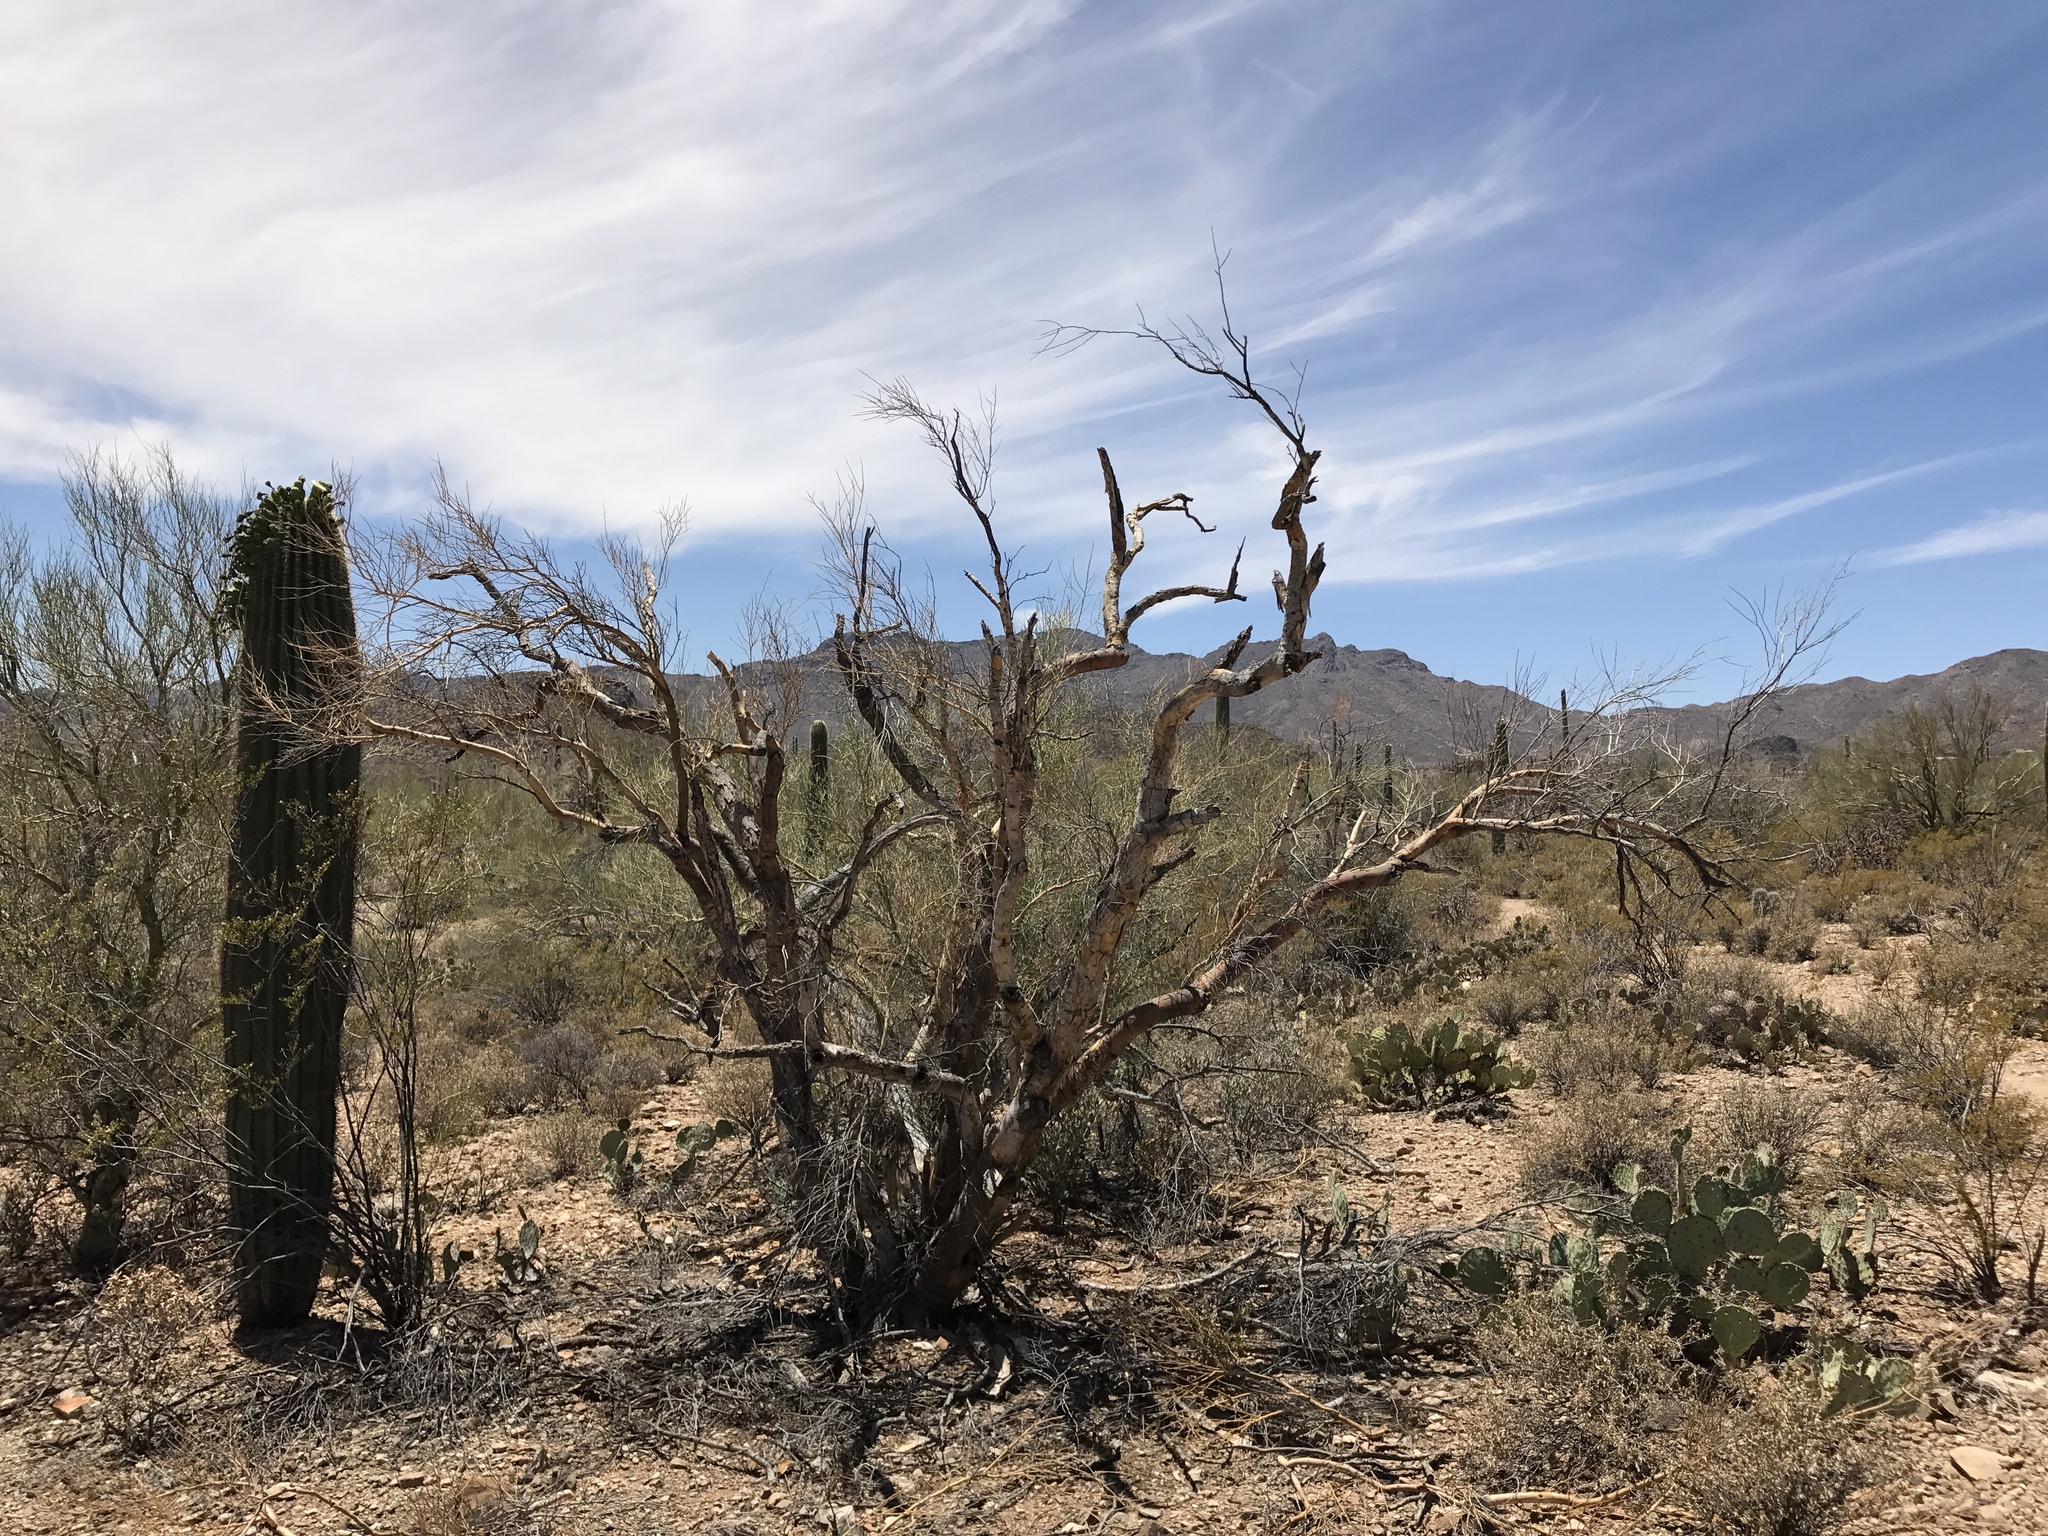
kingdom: Plantae
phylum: Tracheophyta
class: Magnoliopsida
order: Fabales
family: Fabaceae
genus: Parkinsonia
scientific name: Parkinsonia microphylla
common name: Yellow paloverde
